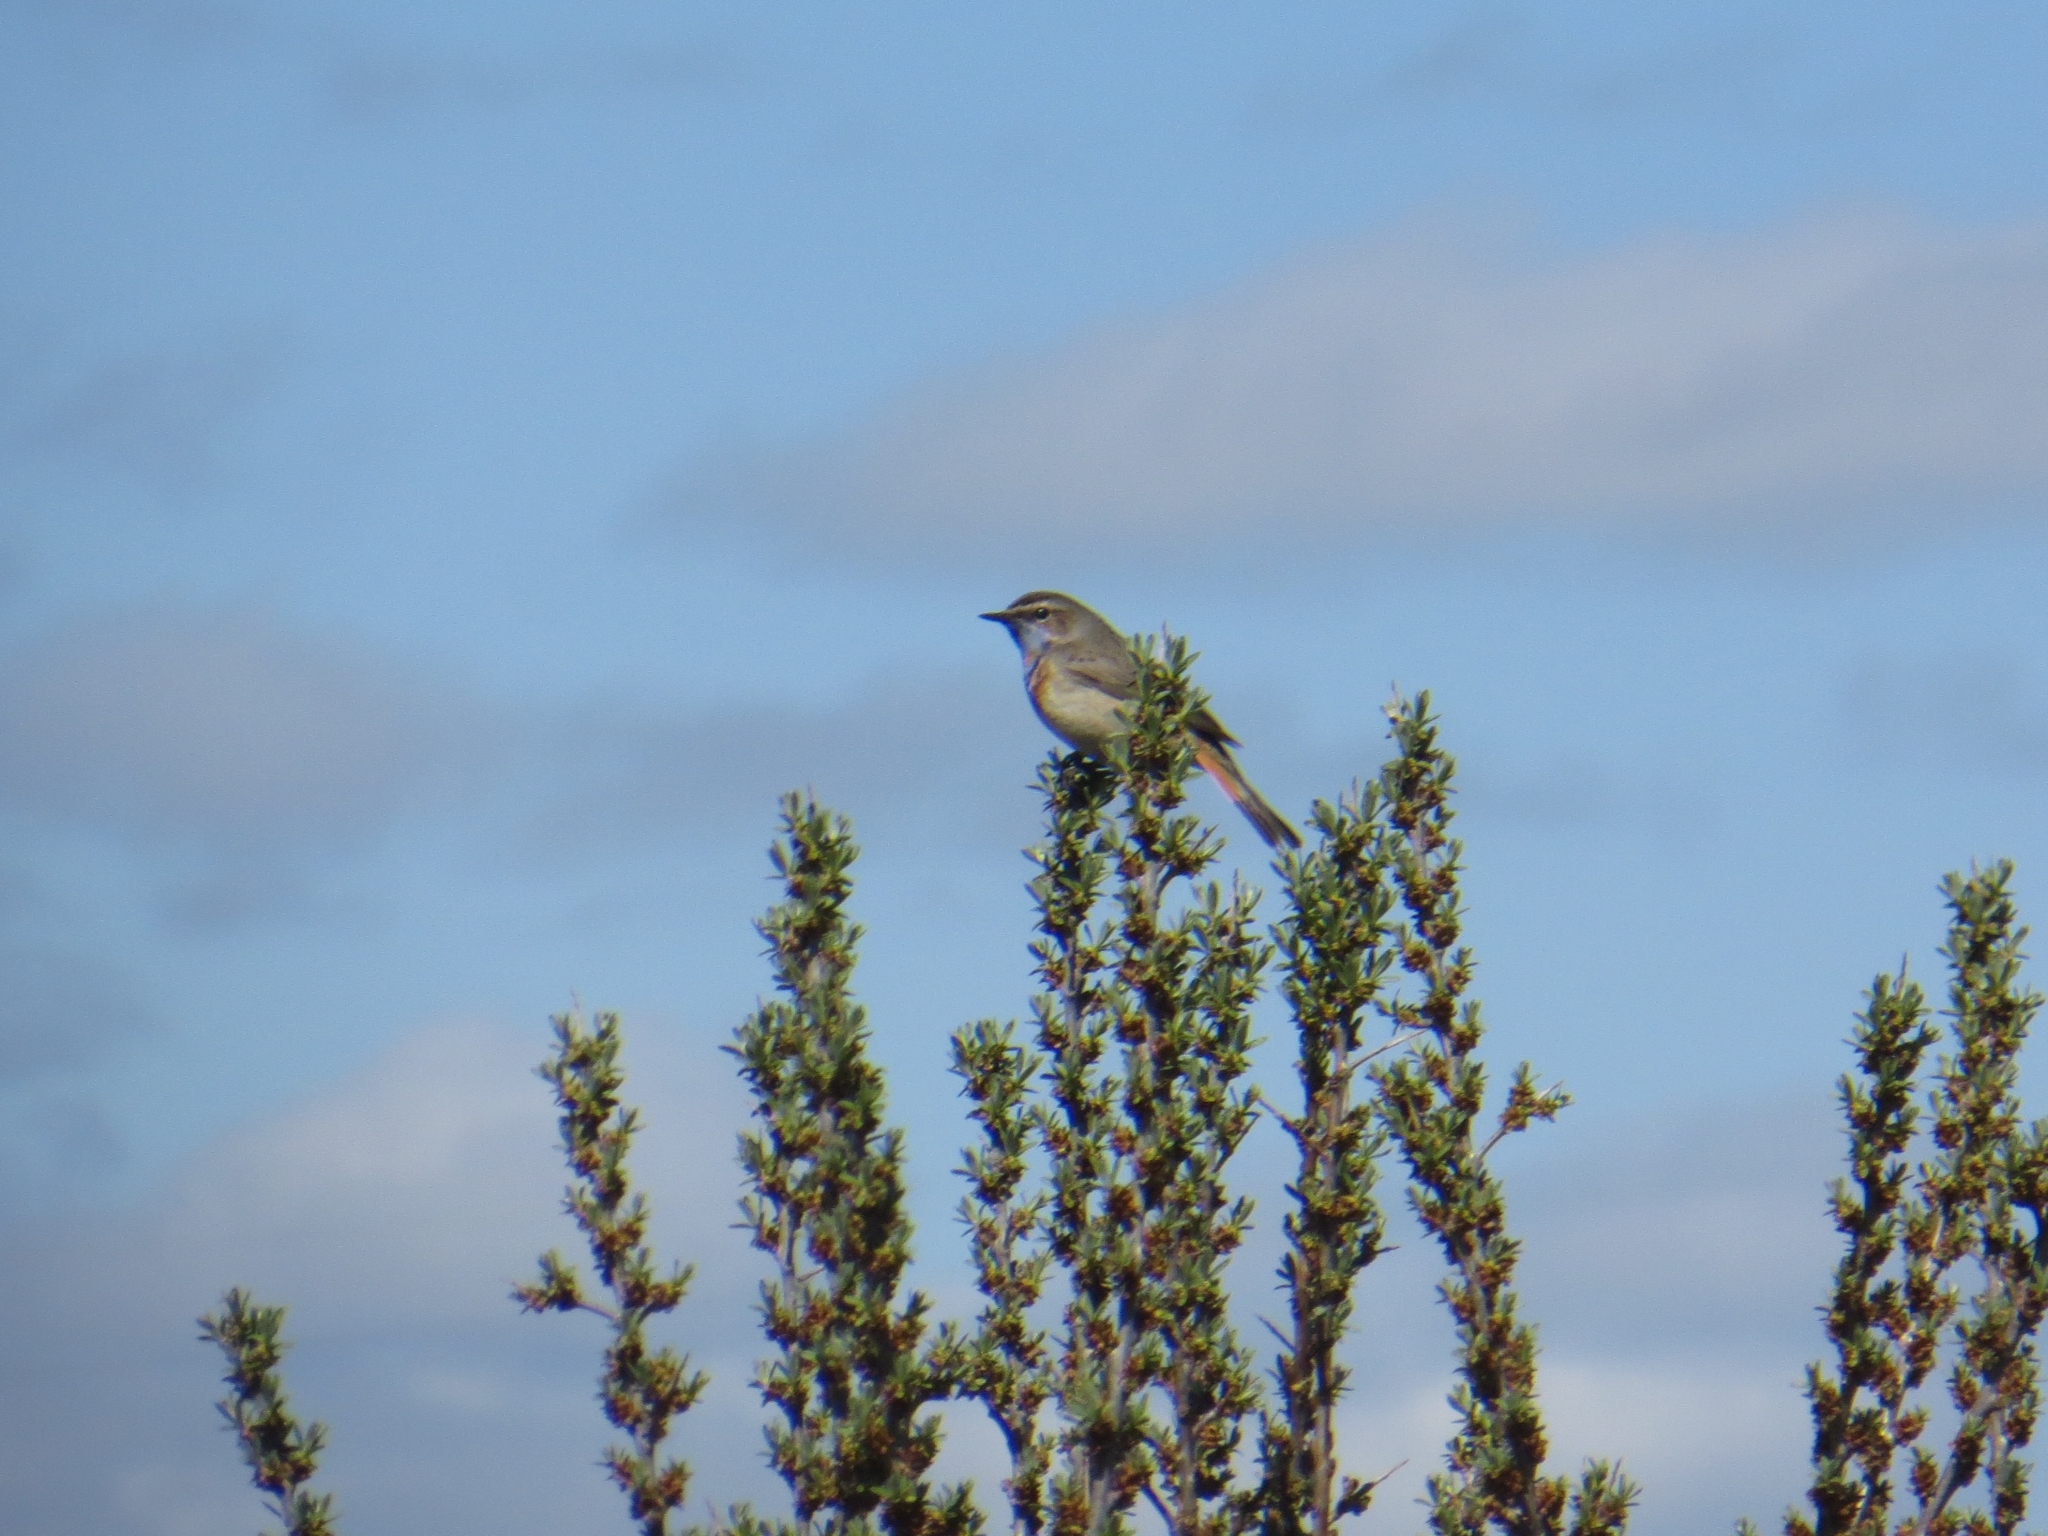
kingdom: Animalia
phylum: Chordata
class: Aves
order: Passeriformes
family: Muscicapidae
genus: Luscinia
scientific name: Luscinia svecica
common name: Bluethroat
